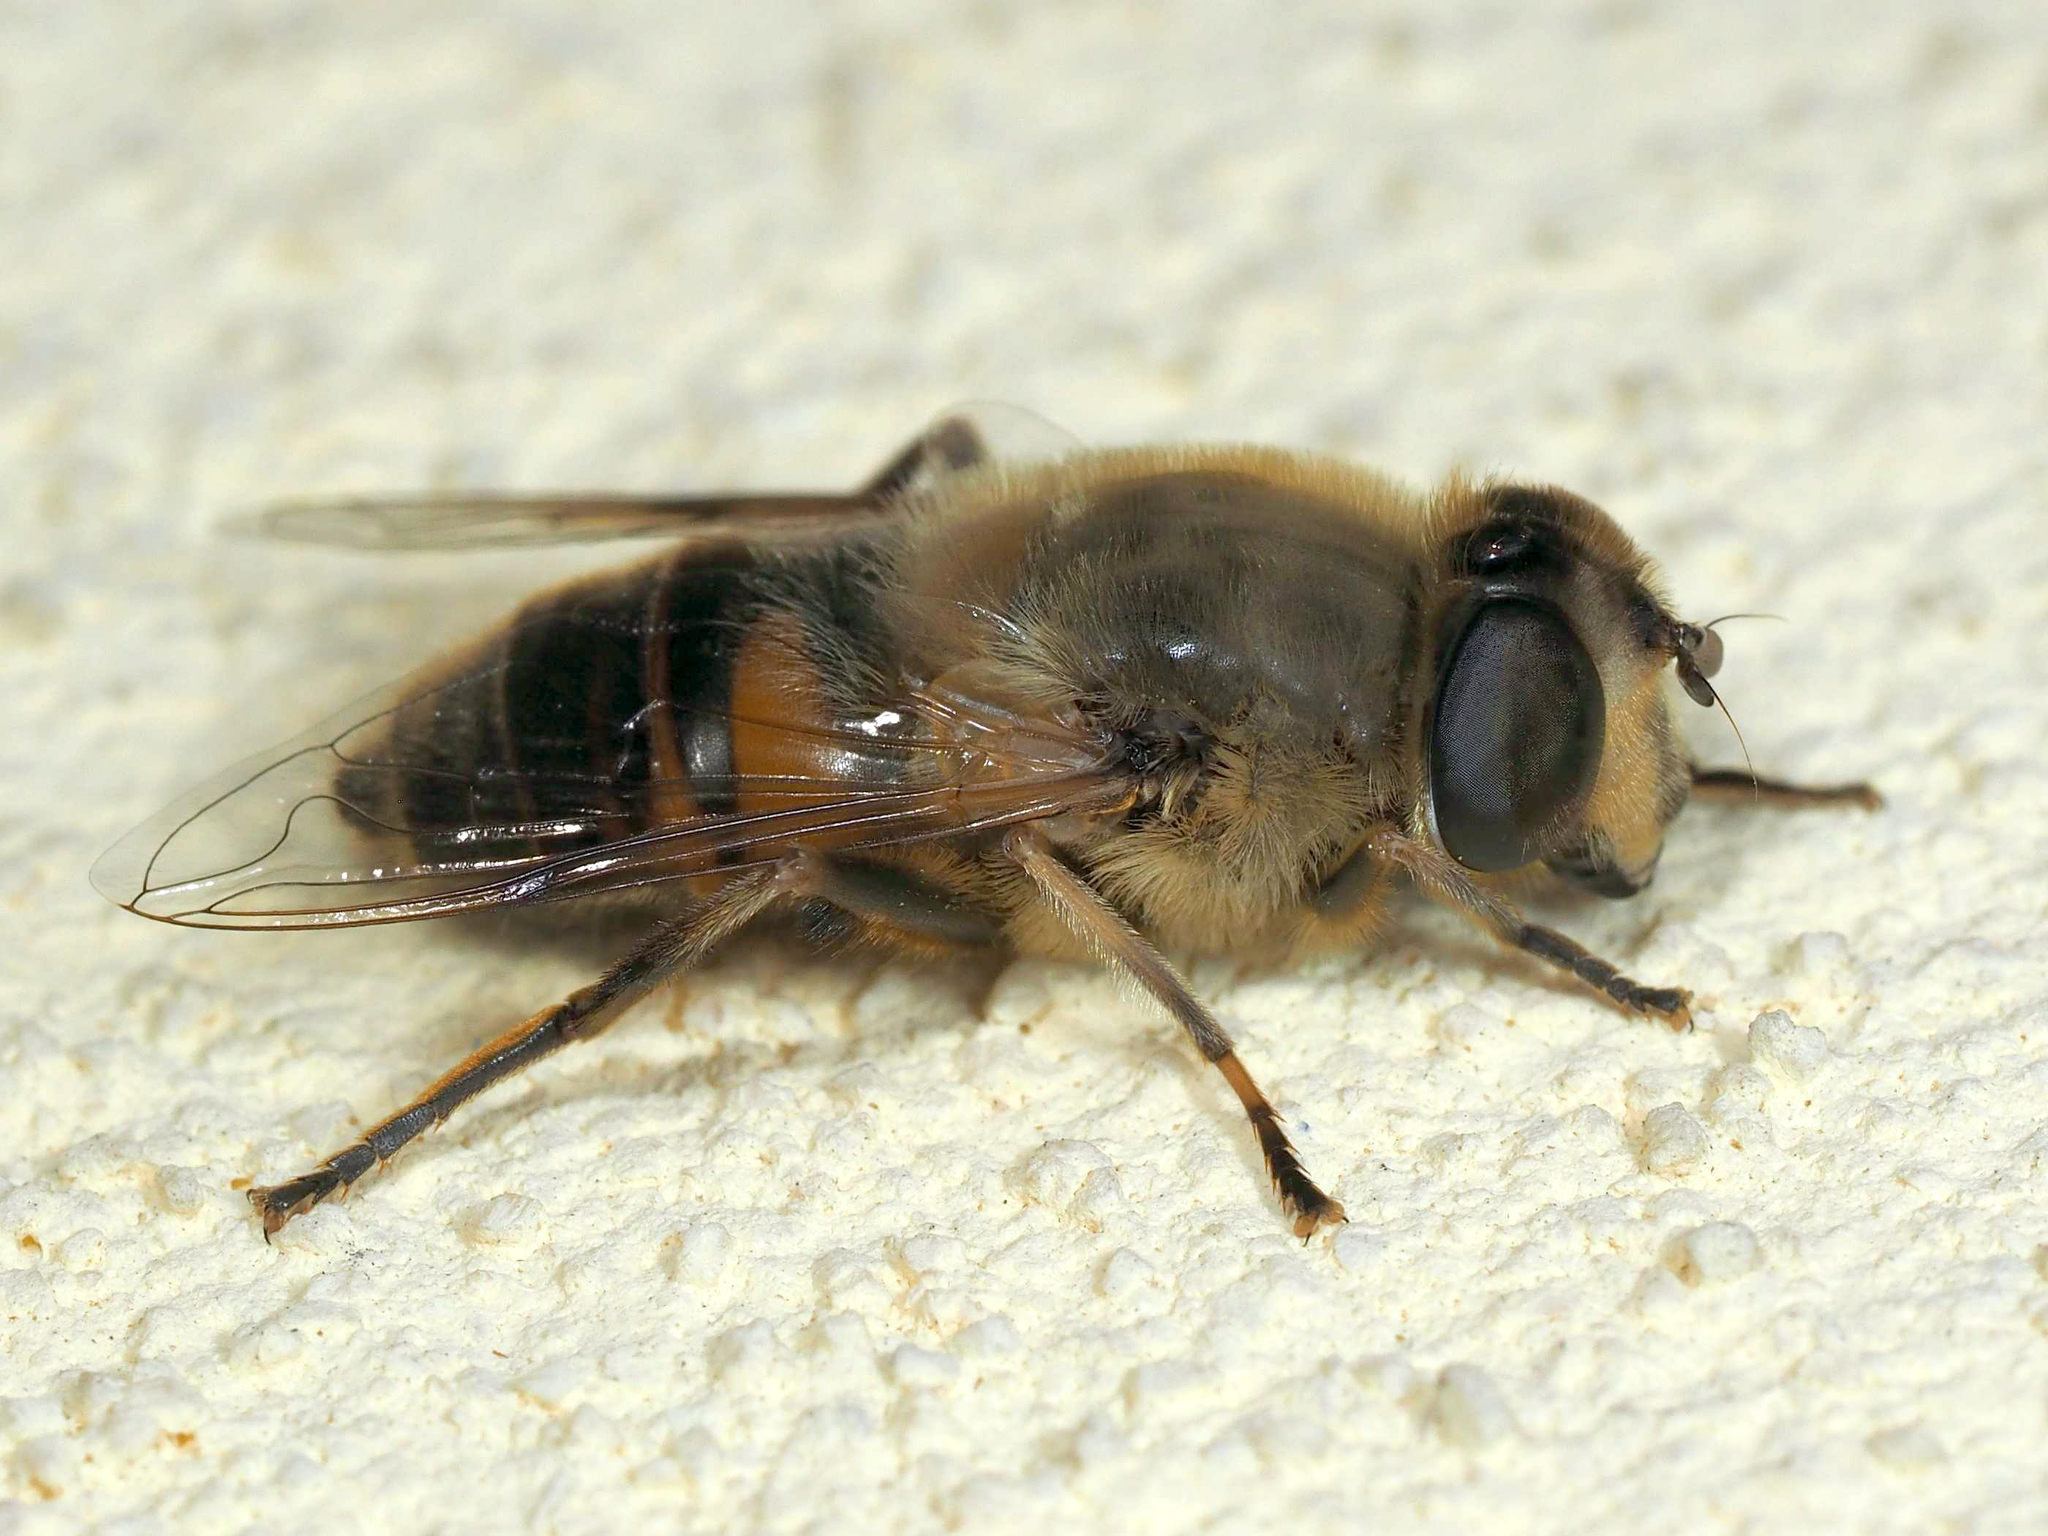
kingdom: Animalia
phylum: Arthropoda
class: Insecta
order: Diptera
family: Syrphidae
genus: Eristalis
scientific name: Eristalis tenax
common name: Drone fly
